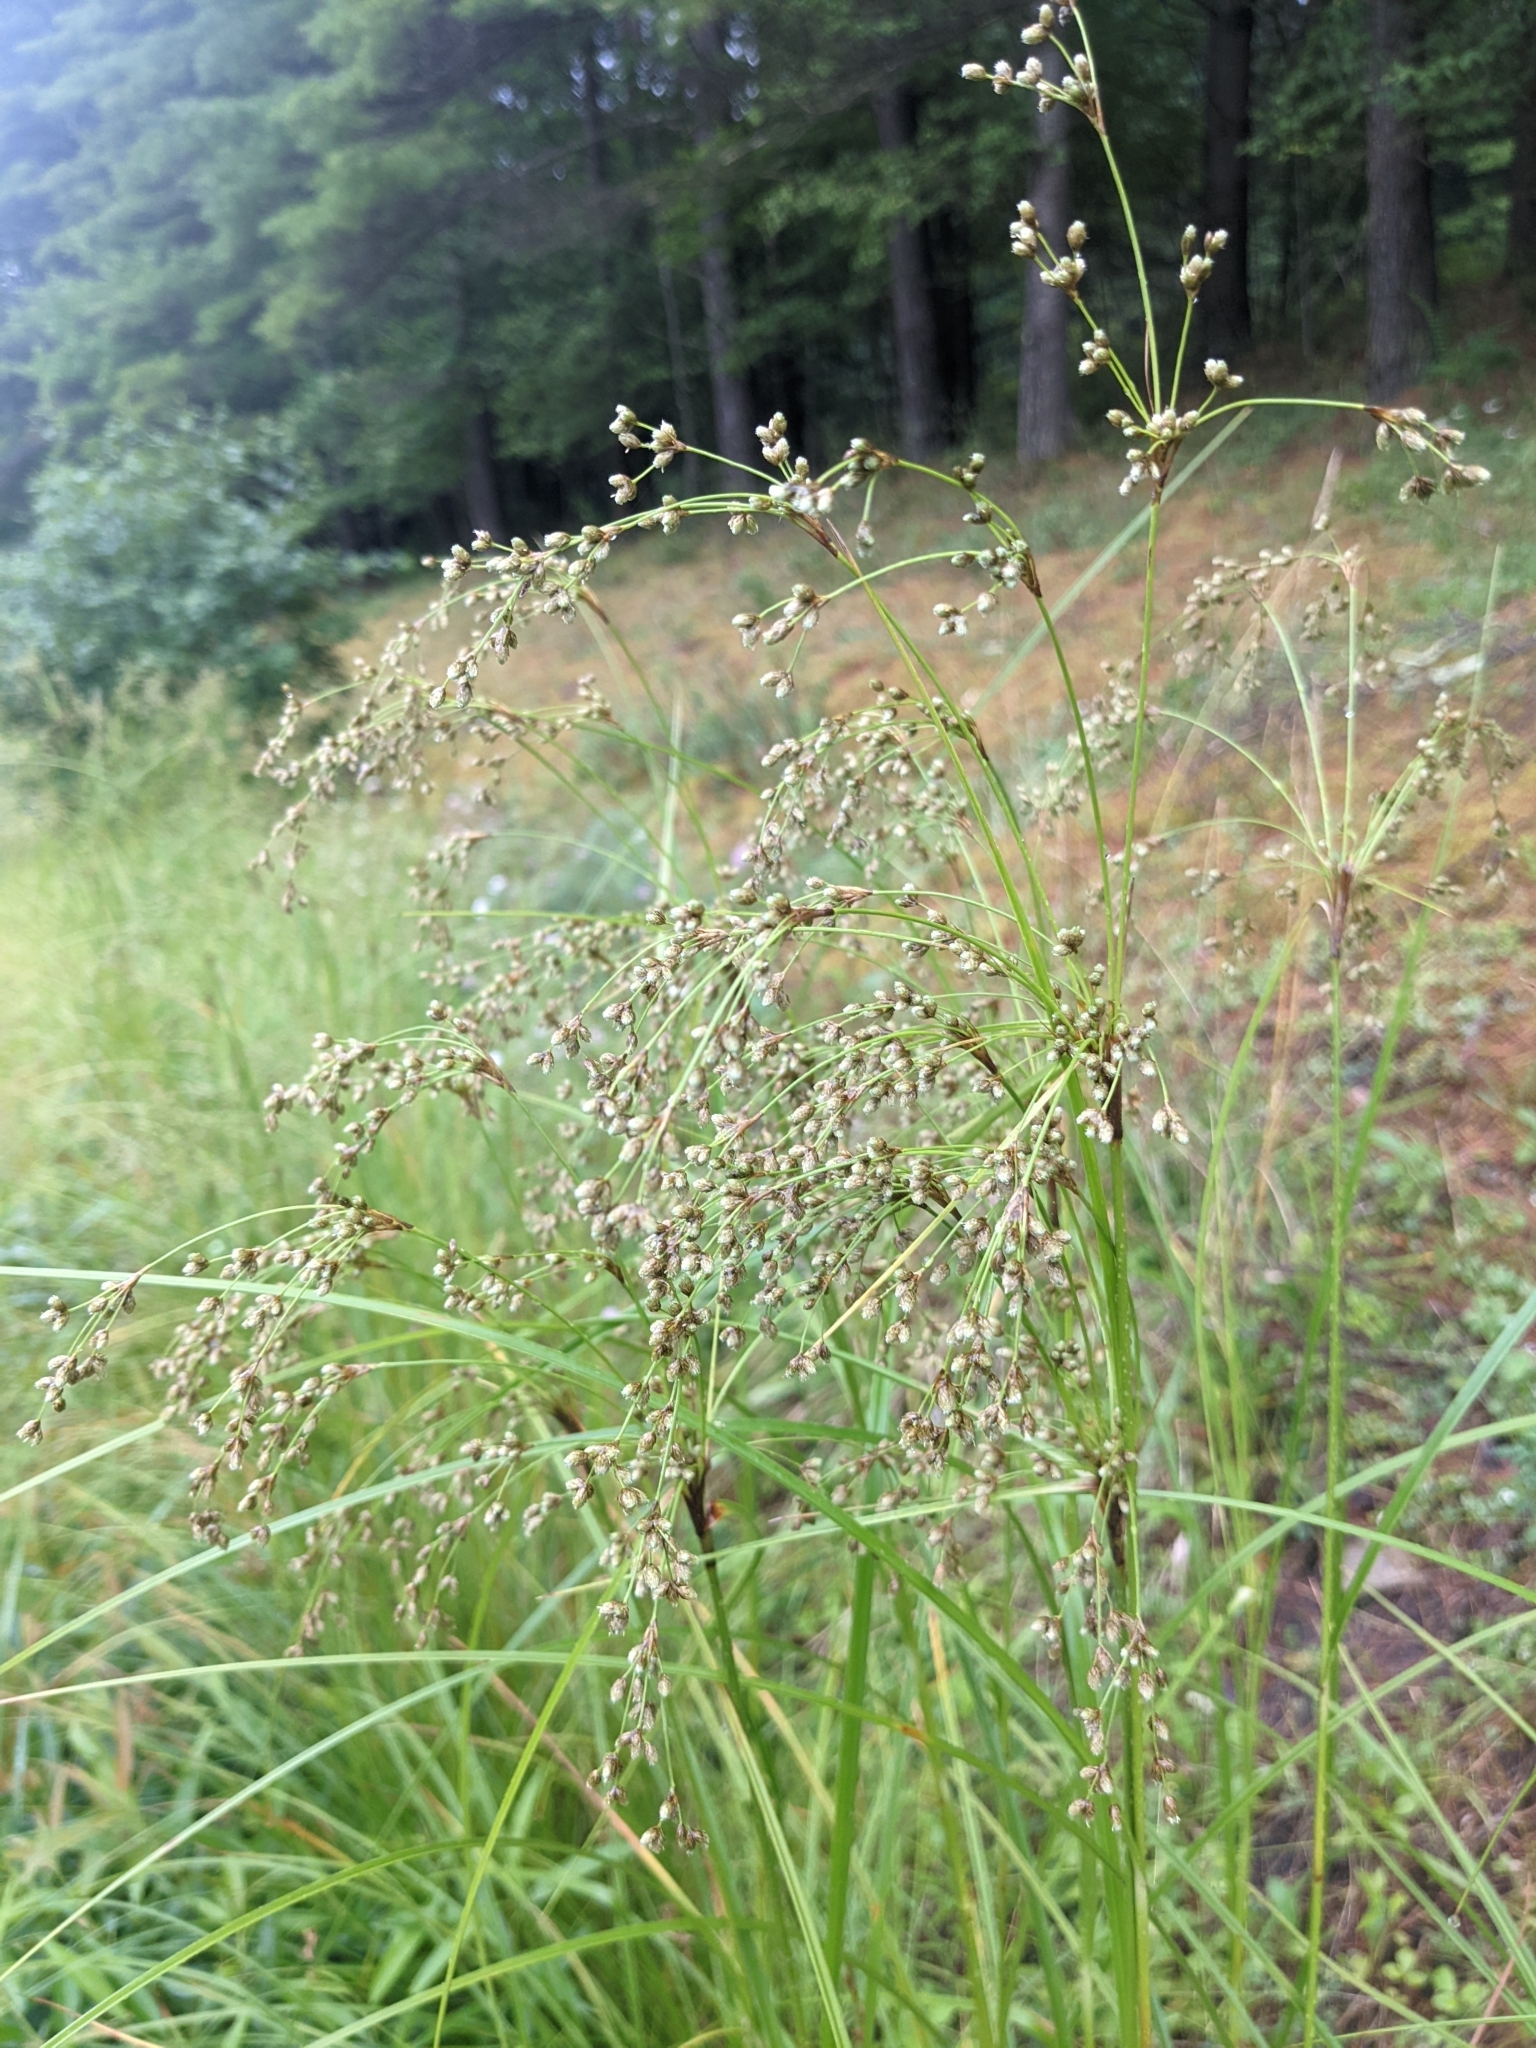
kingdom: Plantae
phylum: Tracheophyta
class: Liliopsida
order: Poales
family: Cyperaceae
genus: Scirpus
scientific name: Scirpus cyperinus
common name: Black-sheathed bulrush
